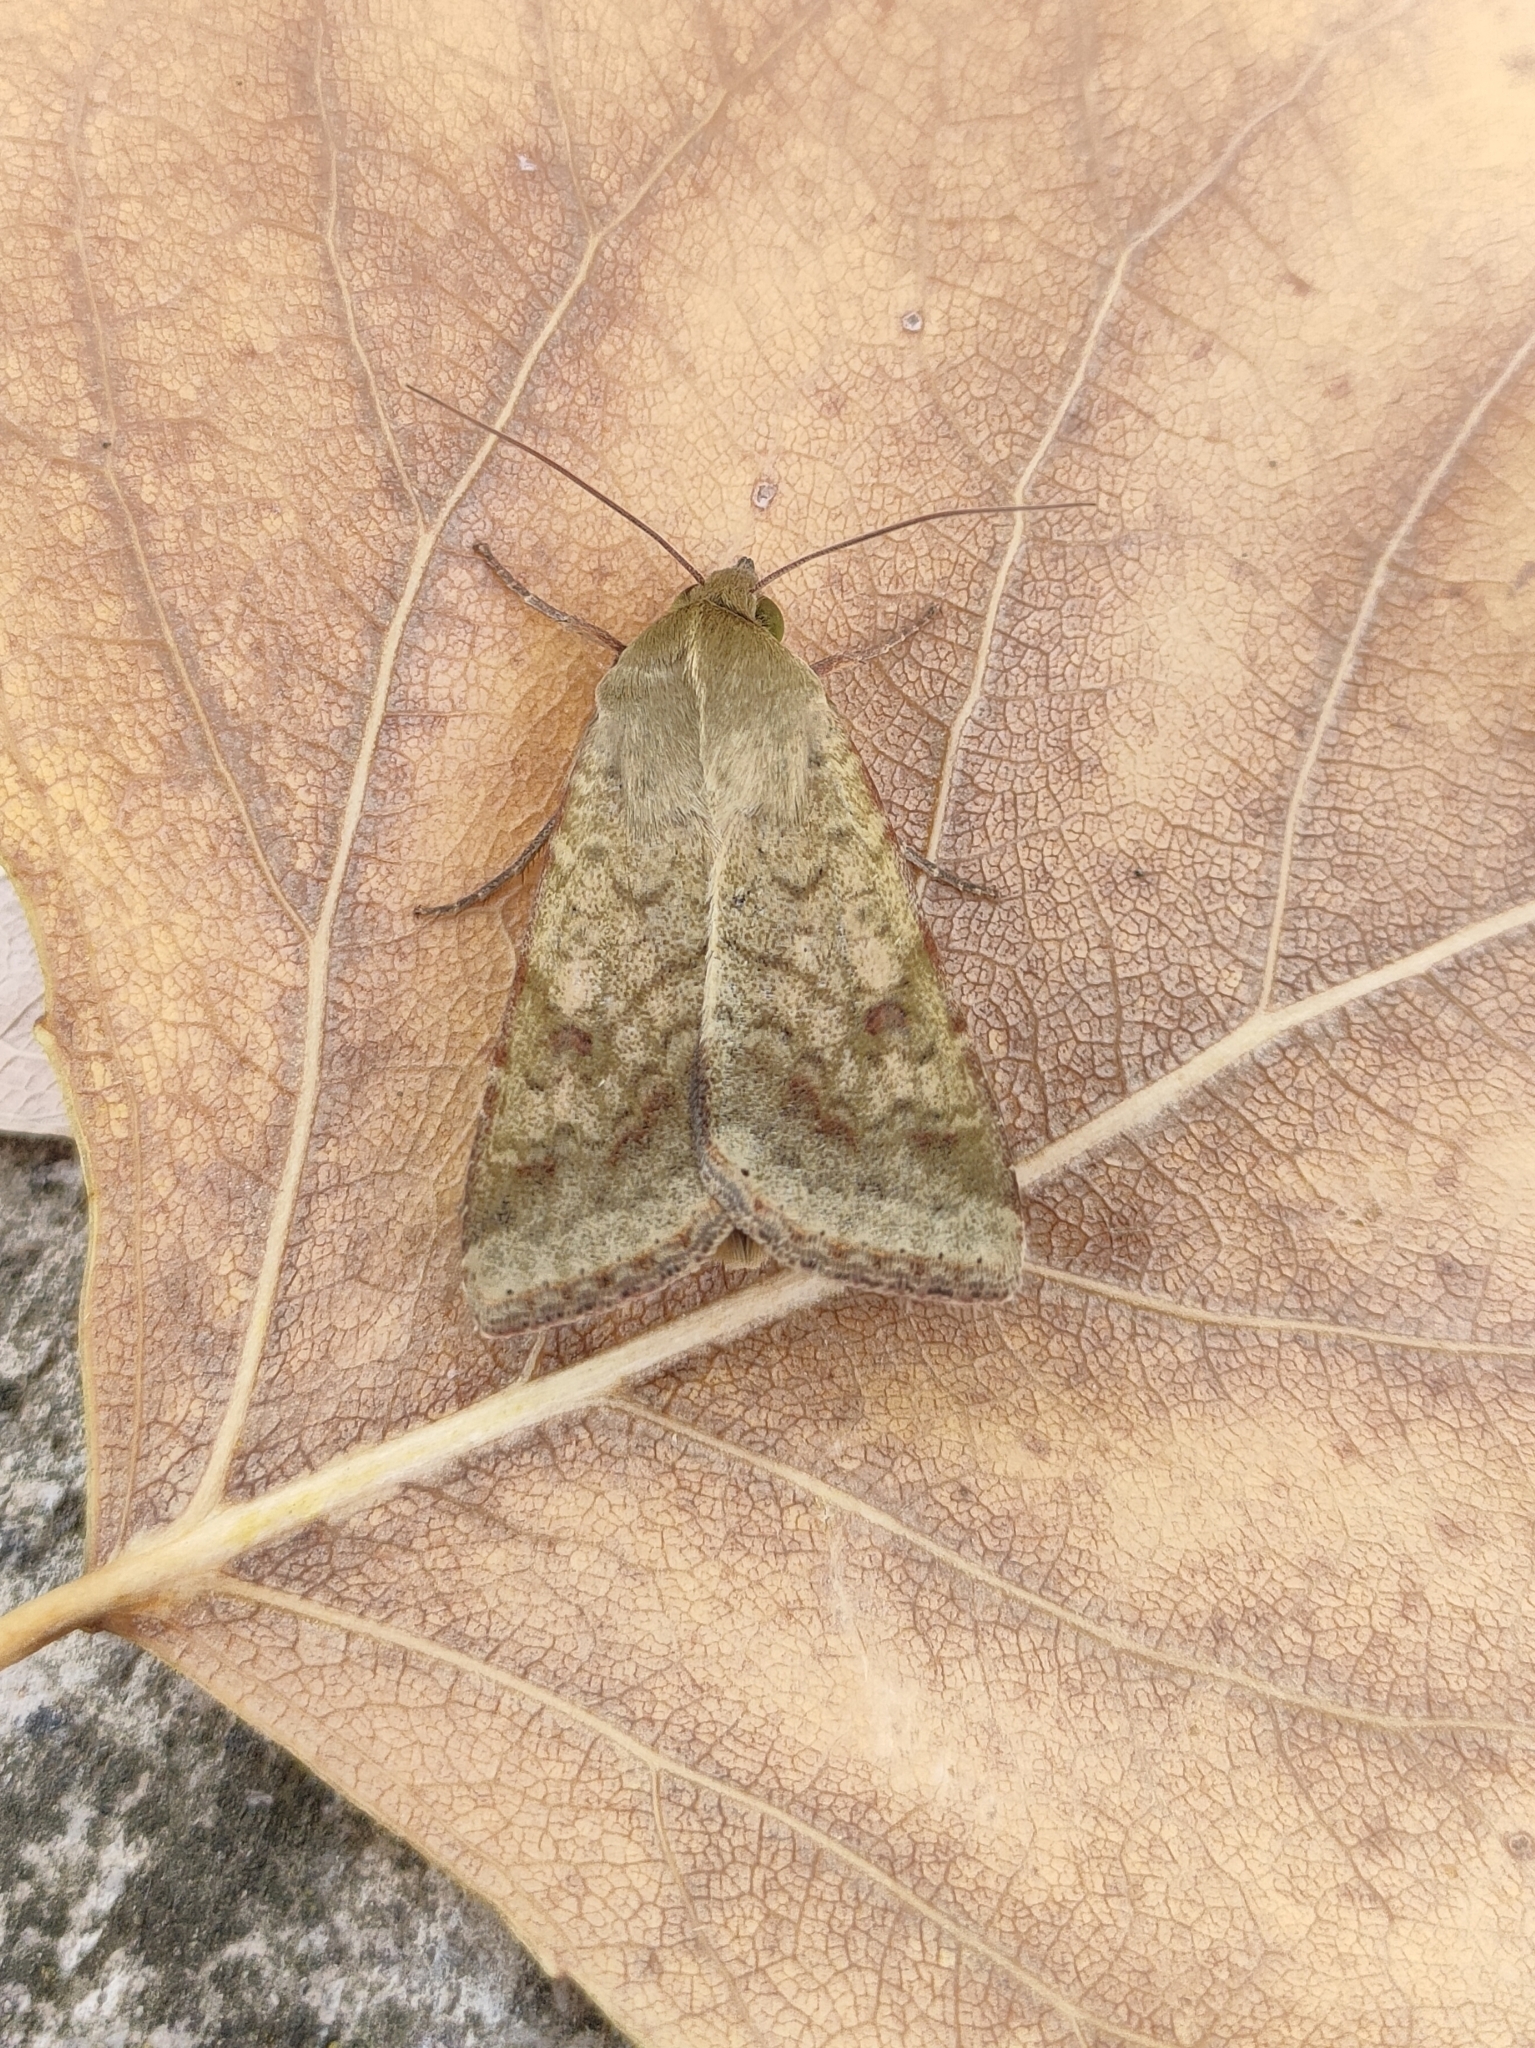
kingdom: Animalia
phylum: Arthropoda
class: Insecta
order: Lepidoptera
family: Noctuidae
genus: Helicoverpa
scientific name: Helicoverpa armigera
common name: Cotton bollworm
